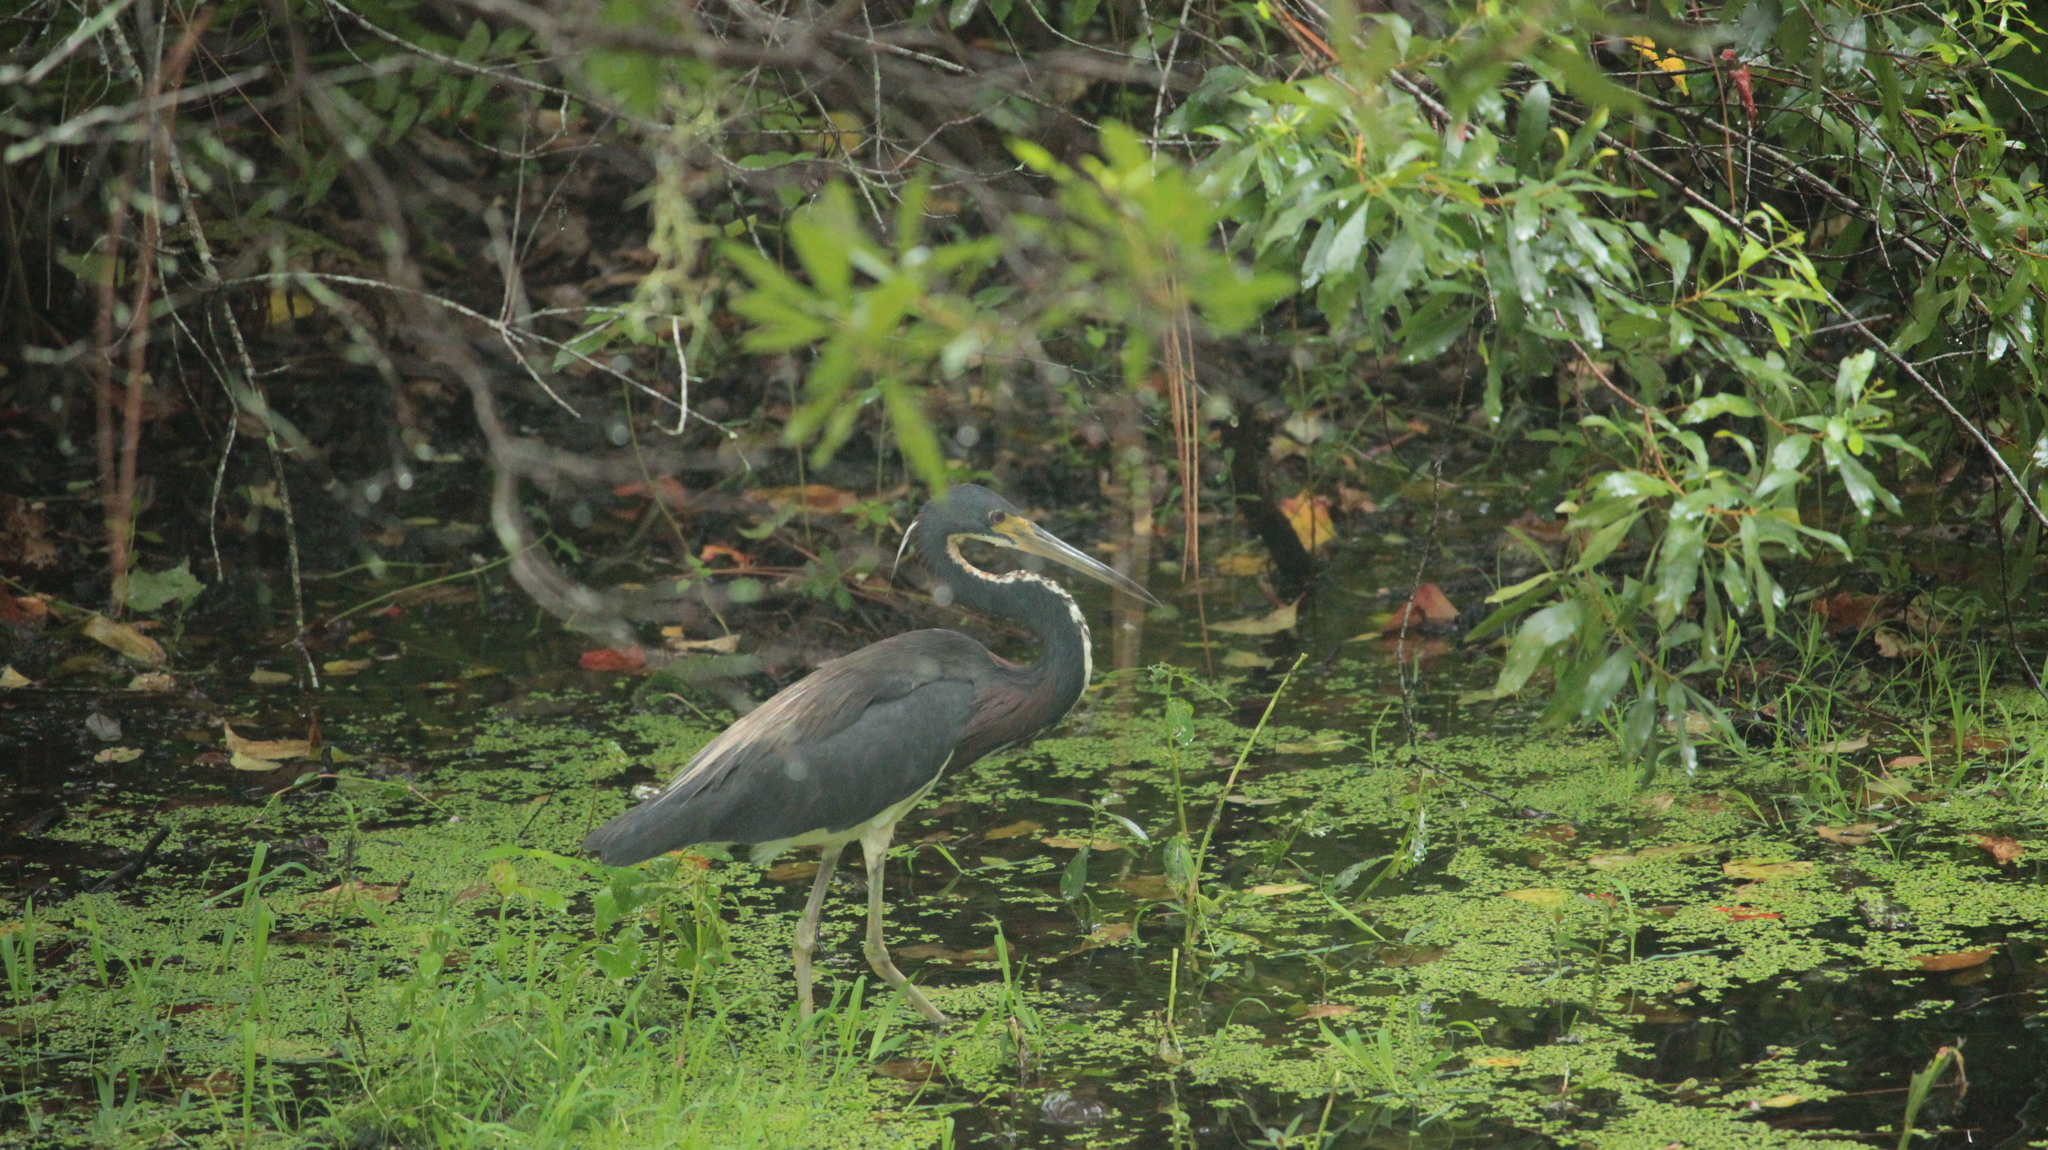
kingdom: Animalia
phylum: Chordata
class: Aves
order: Pelecaniformes
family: Ardeidae
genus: Egretta
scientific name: Egretta tricolor
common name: Tricolored heron
